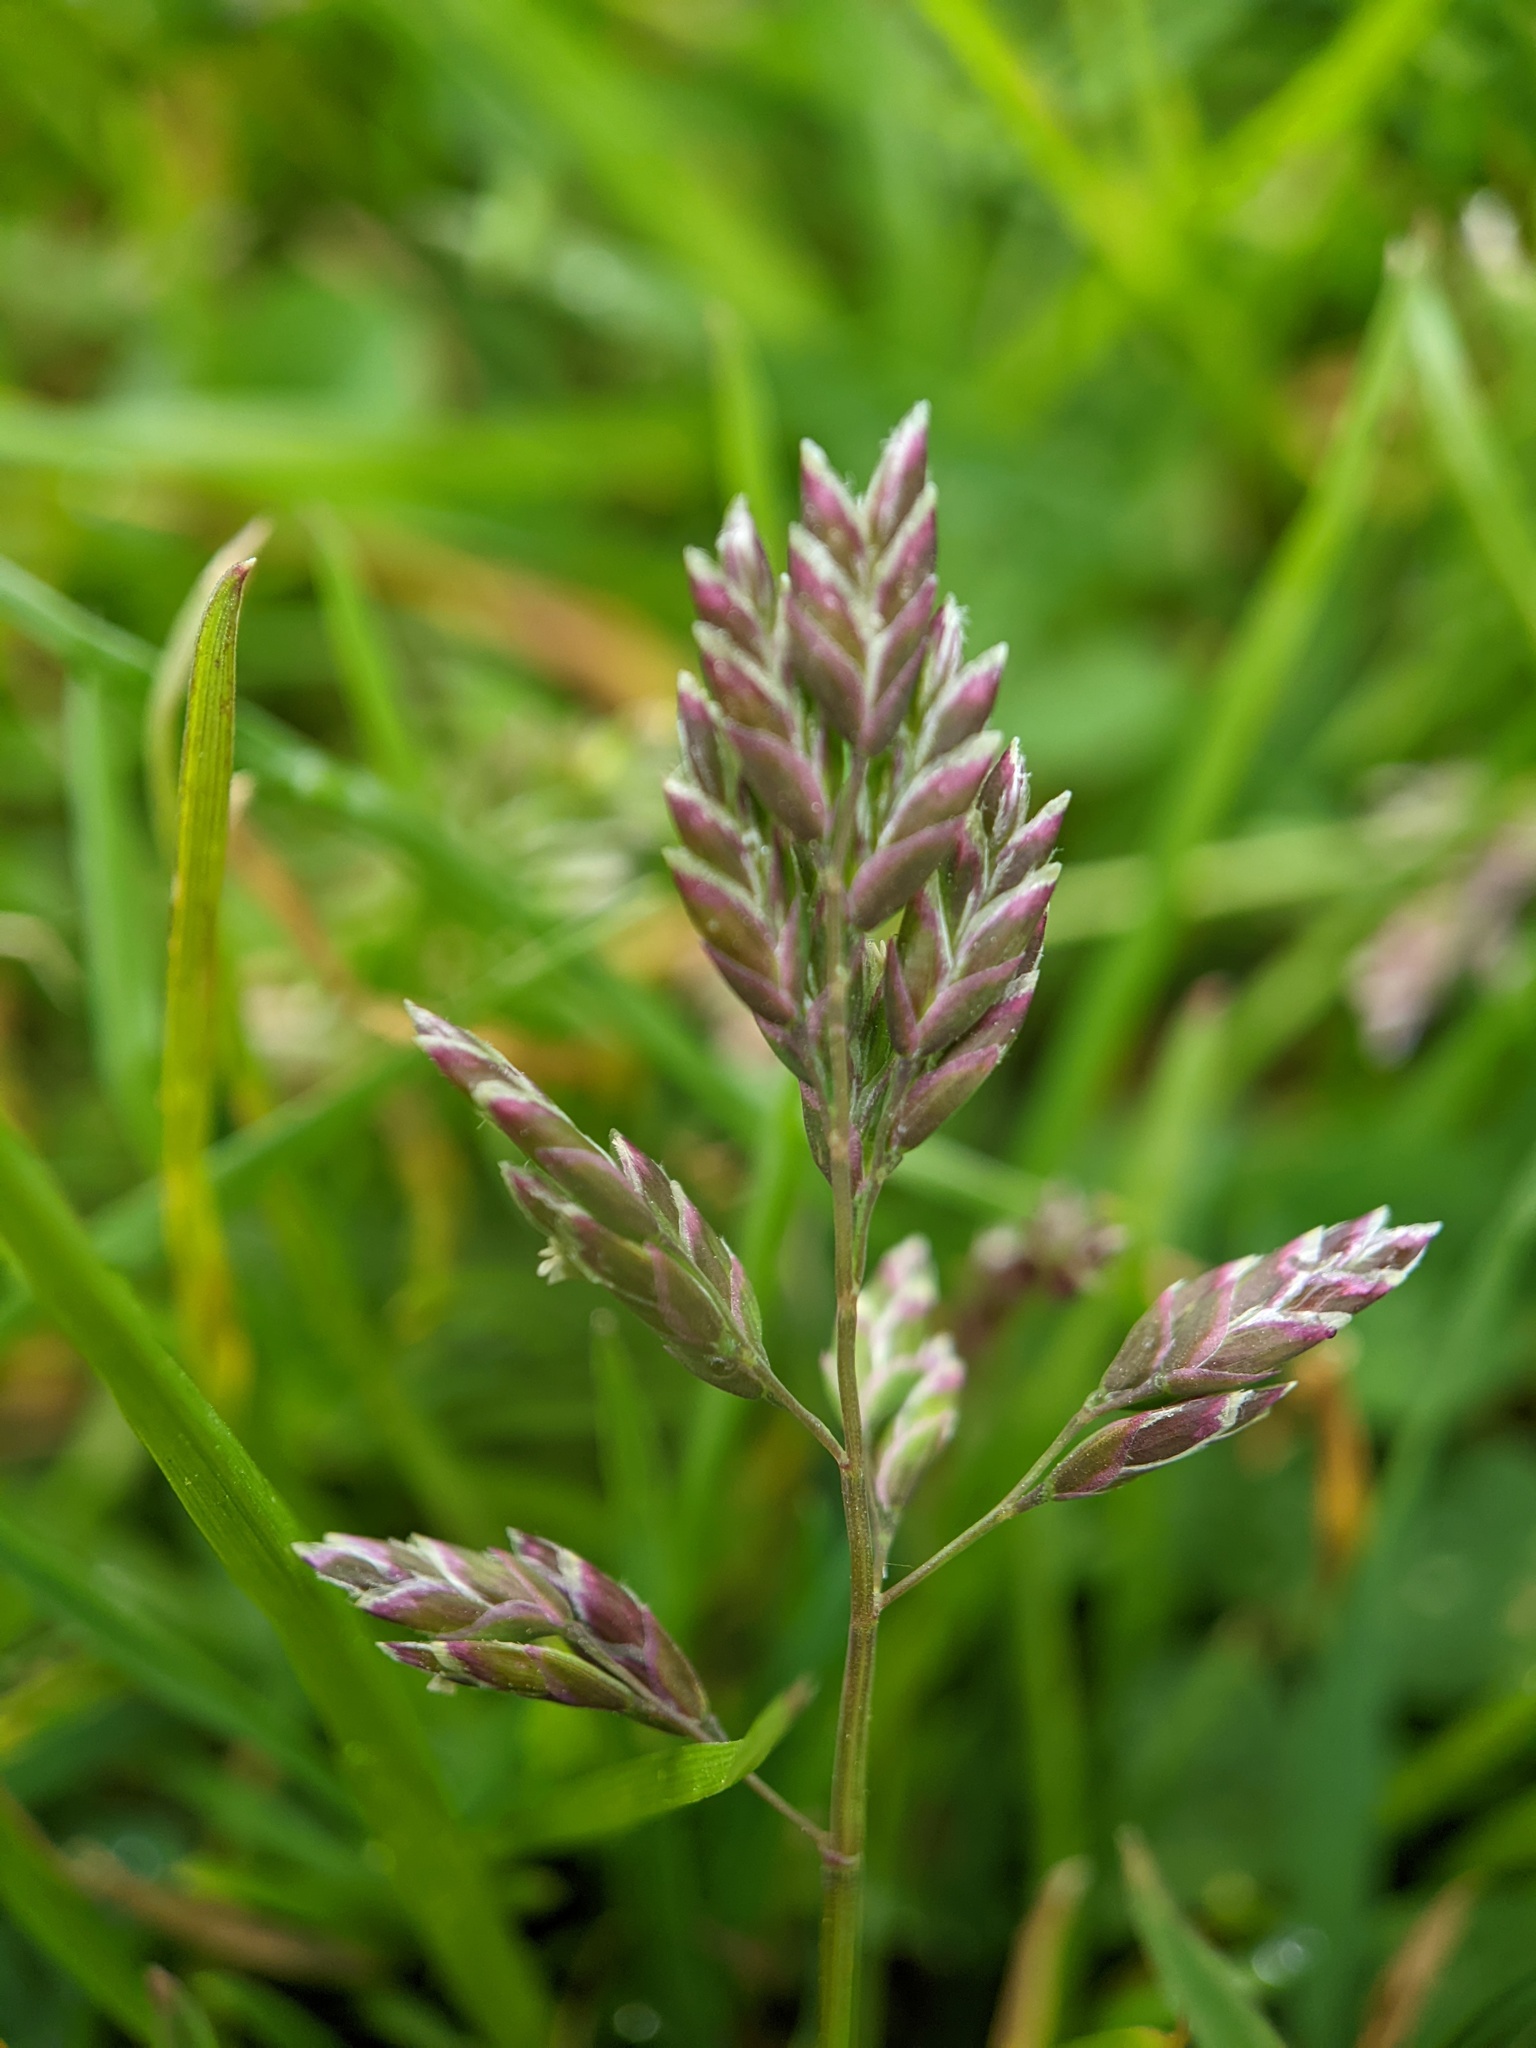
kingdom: Plantae
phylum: Tracheophyta
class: Liliopsida
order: Poales
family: Poaceae
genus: Poa
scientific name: Poa annua
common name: Annual bluegrass
